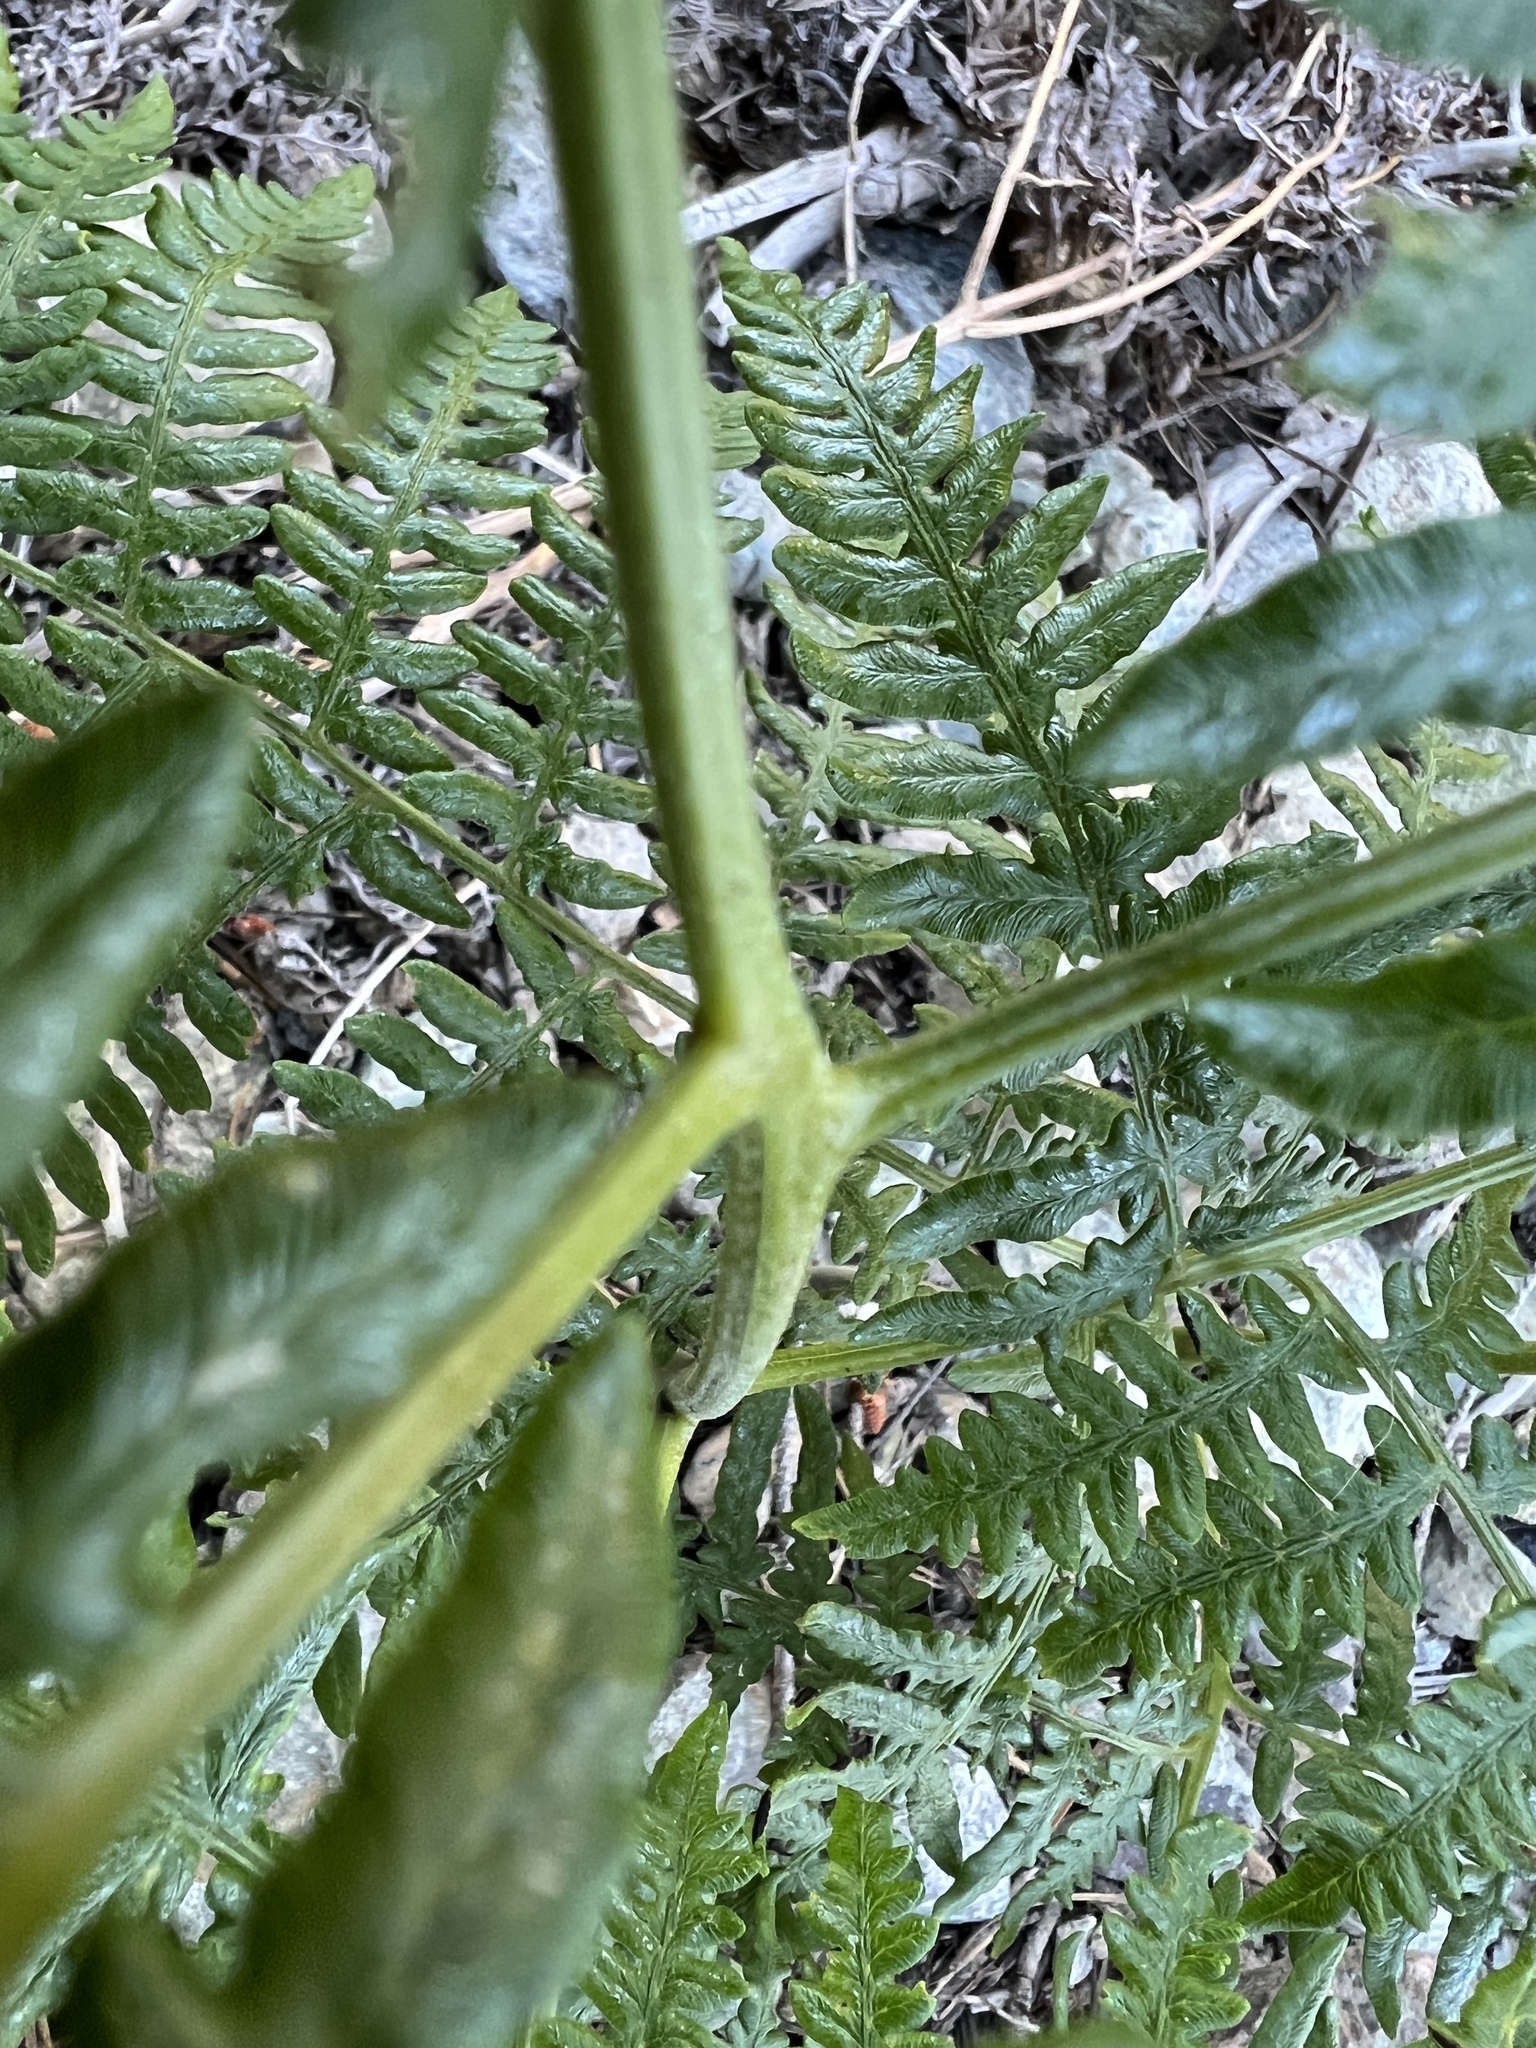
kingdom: Plantae
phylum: Tracheophyta
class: Polypodiopsida
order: Polypodiales
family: Dennstaedtiaceae
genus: Pteridium
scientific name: Pteridium aquilinum
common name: Bracken
